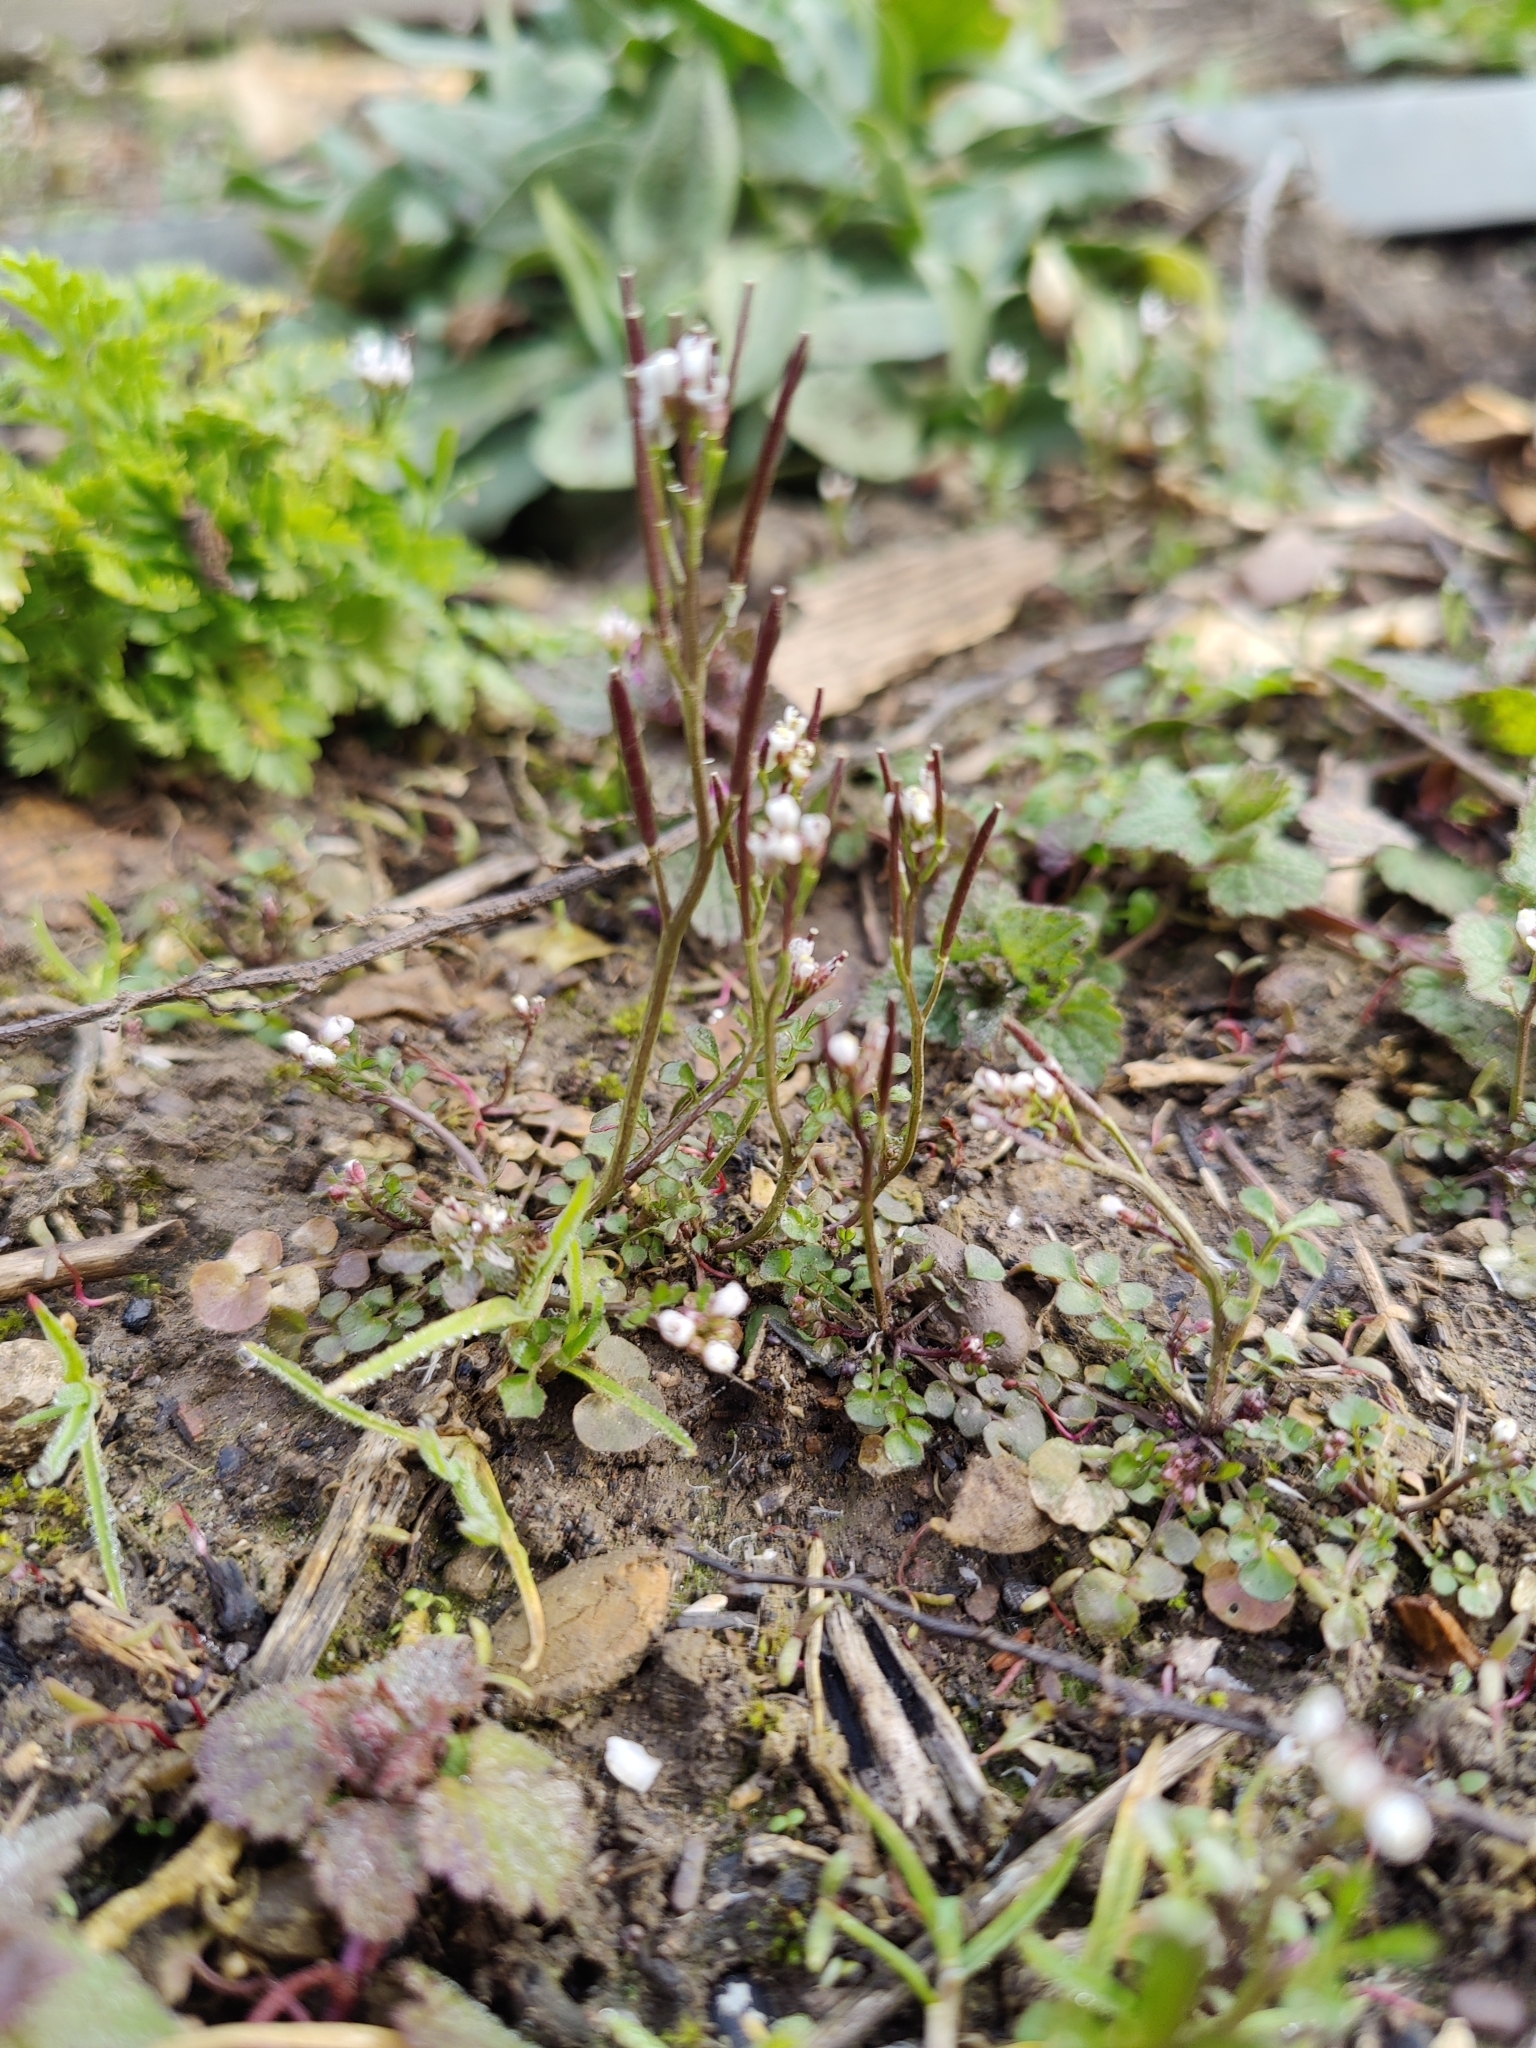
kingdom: Plantae
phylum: Tracheophyta
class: Magnoliopsida
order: Brassicales
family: Brassicaceae
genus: Cardamine
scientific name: Cardamine hirsuta
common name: Hairy bittercress
